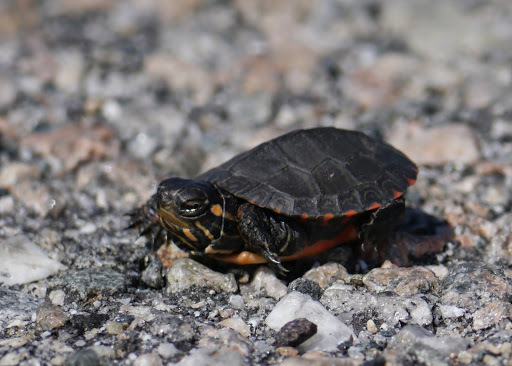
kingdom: Animalia
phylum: Chordata
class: Testudines
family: Emydidae
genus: Chrysemys
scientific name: Chrysemys picta
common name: Painted turtle
